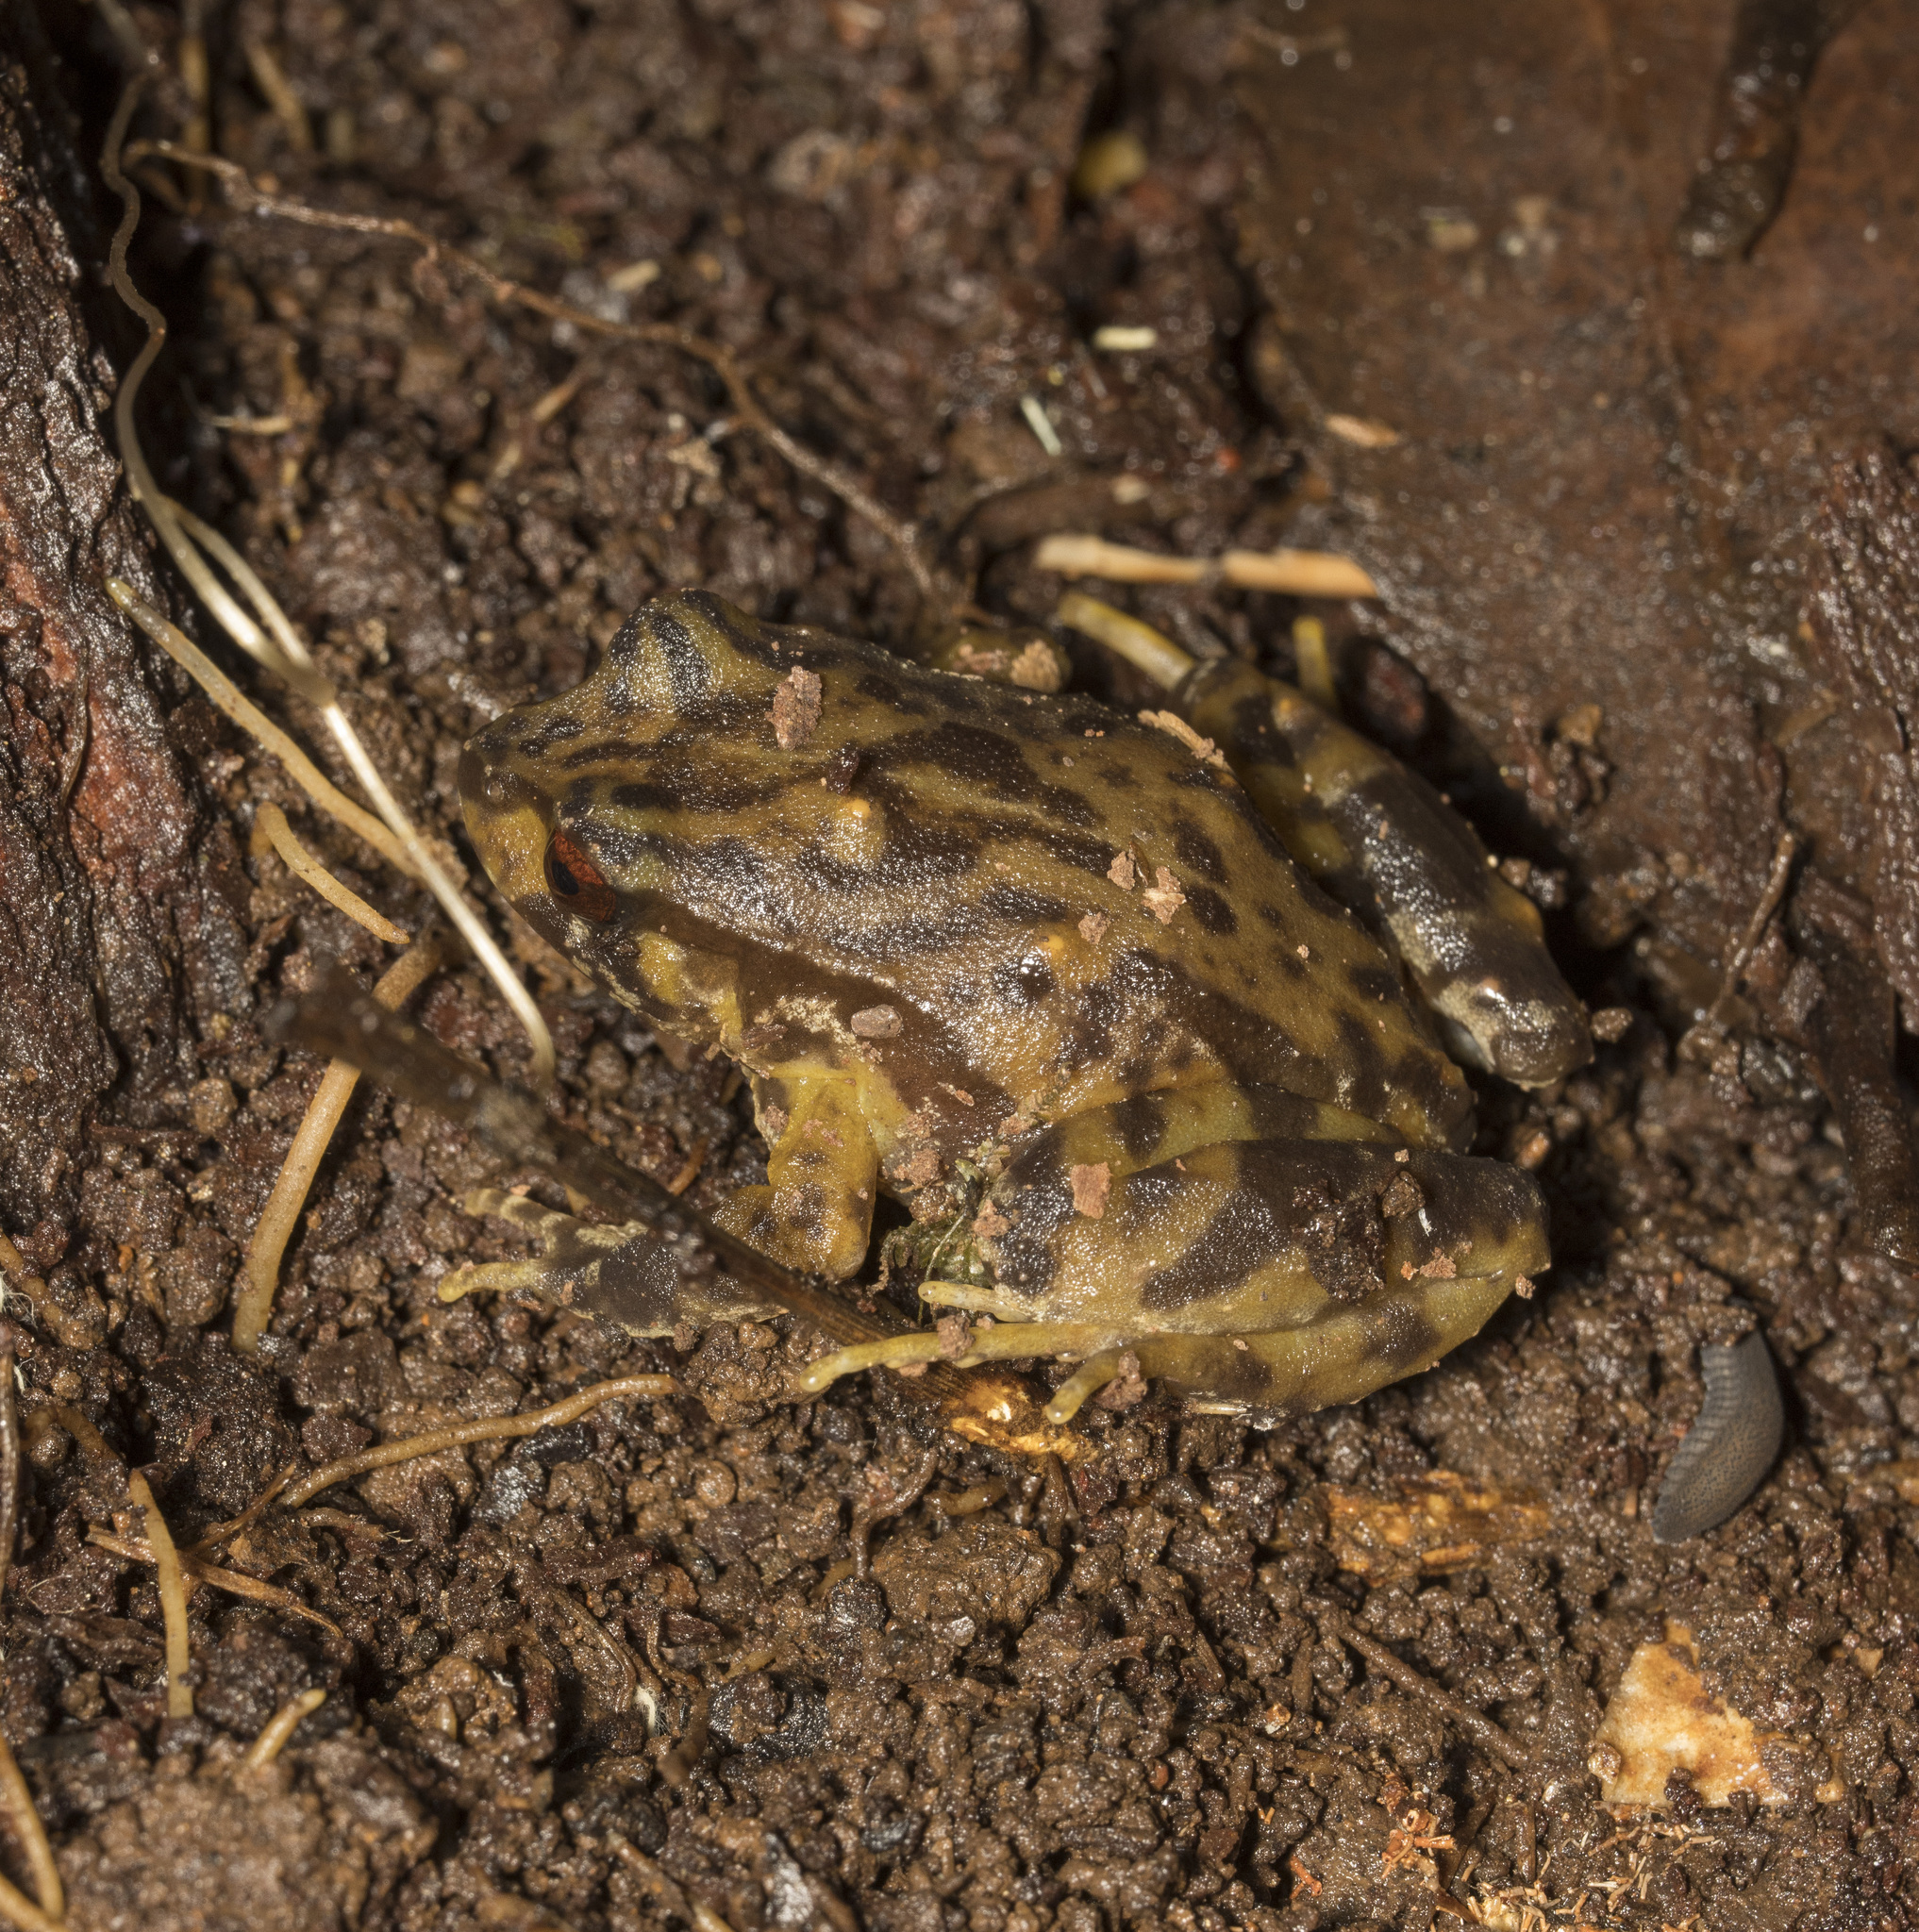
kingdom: Animalia
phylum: Chordata
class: Amphibia
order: Anura
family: Alsodidae
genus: Eupsophus
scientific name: Eupsophus roseus
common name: Rosy ground frog
